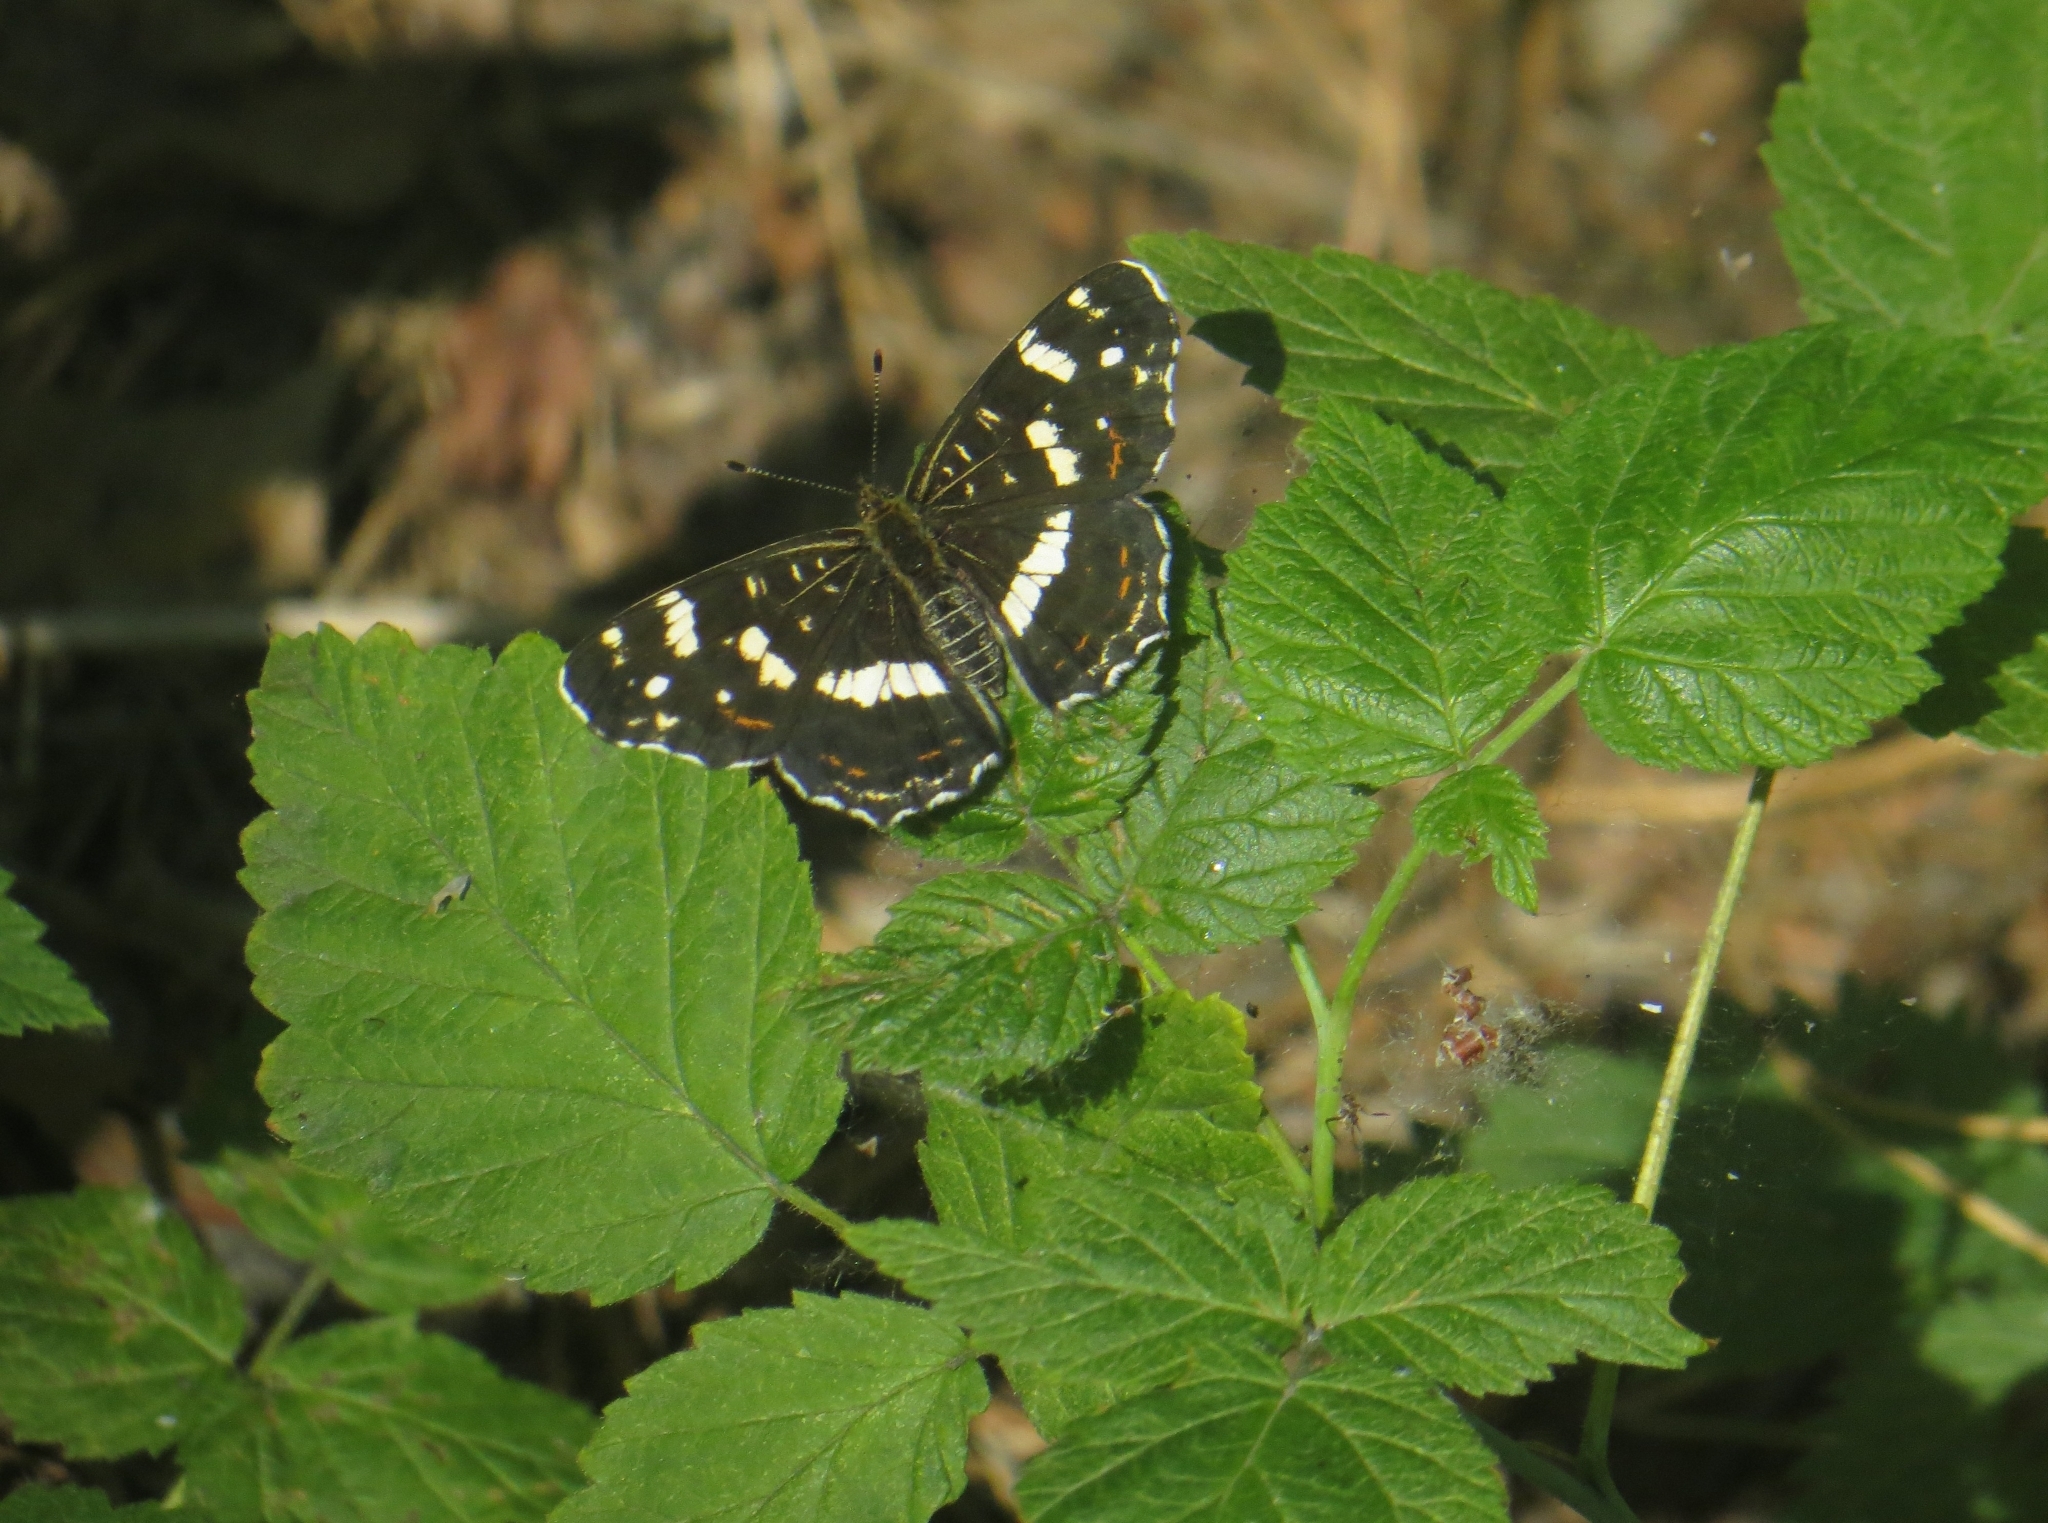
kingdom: Animalia
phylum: Arthropoda
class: Insecta
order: Lepidoptera
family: Nymphalidae
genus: Araschnia
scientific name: Araschnia levana
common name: Map butterfly
